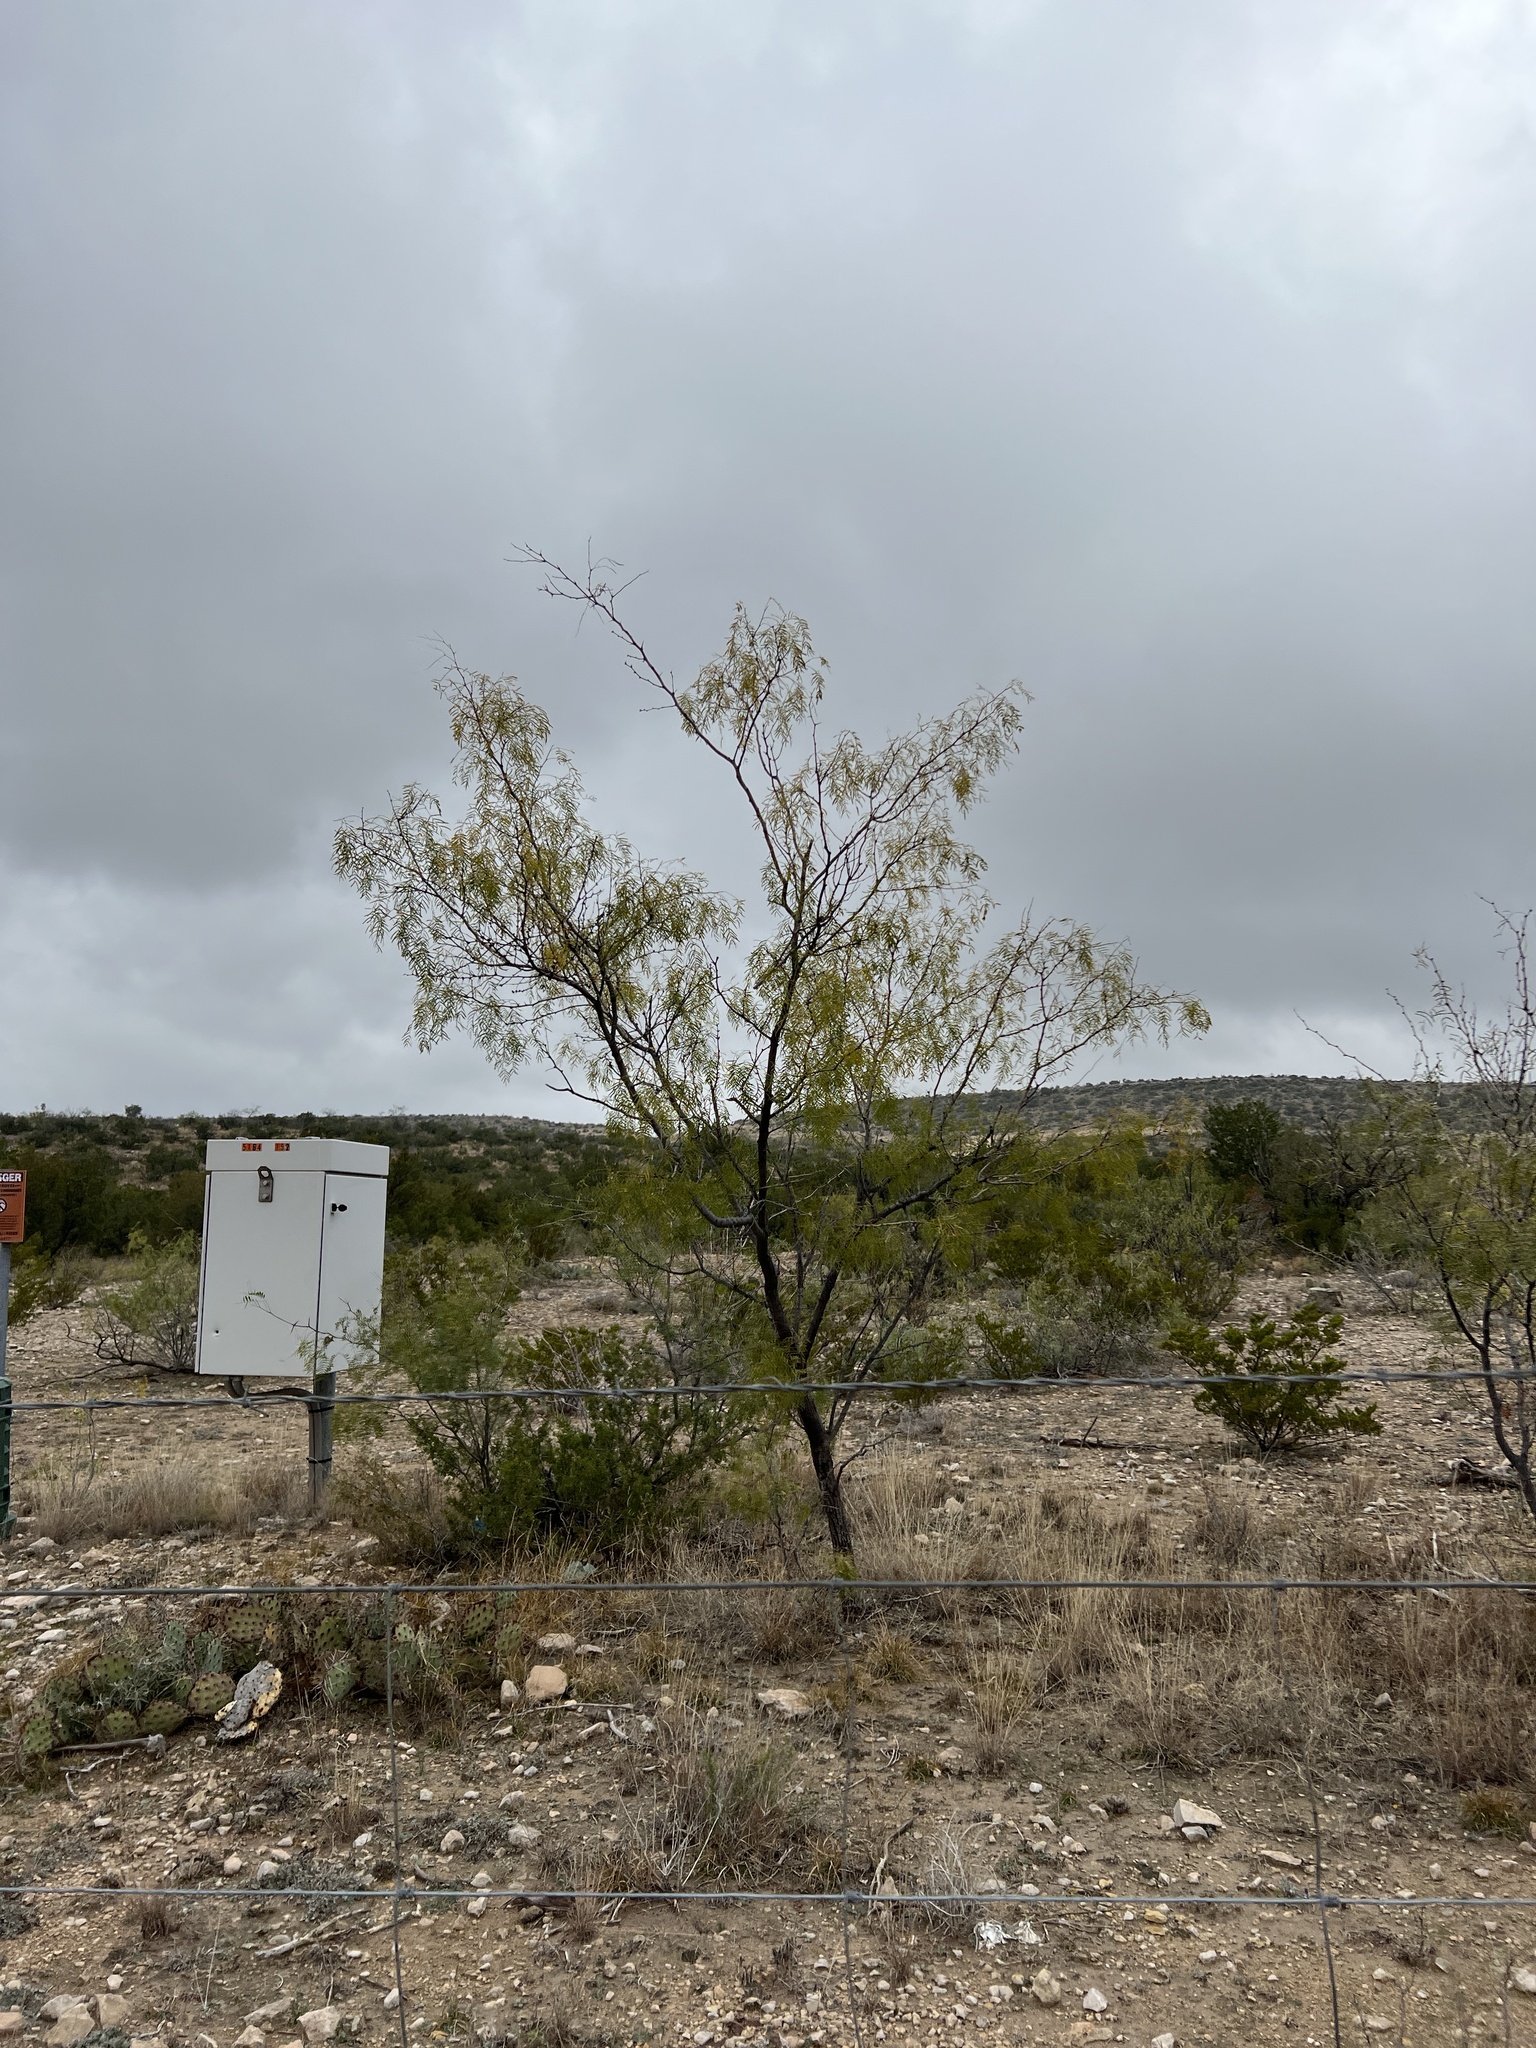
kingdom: Plantae
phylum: Tracheophyta
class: Magnoliopsida
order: Fabales
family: Fabaceae
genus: Prosopis
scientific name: Prosopis glandulosa
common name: Honey mesquite
